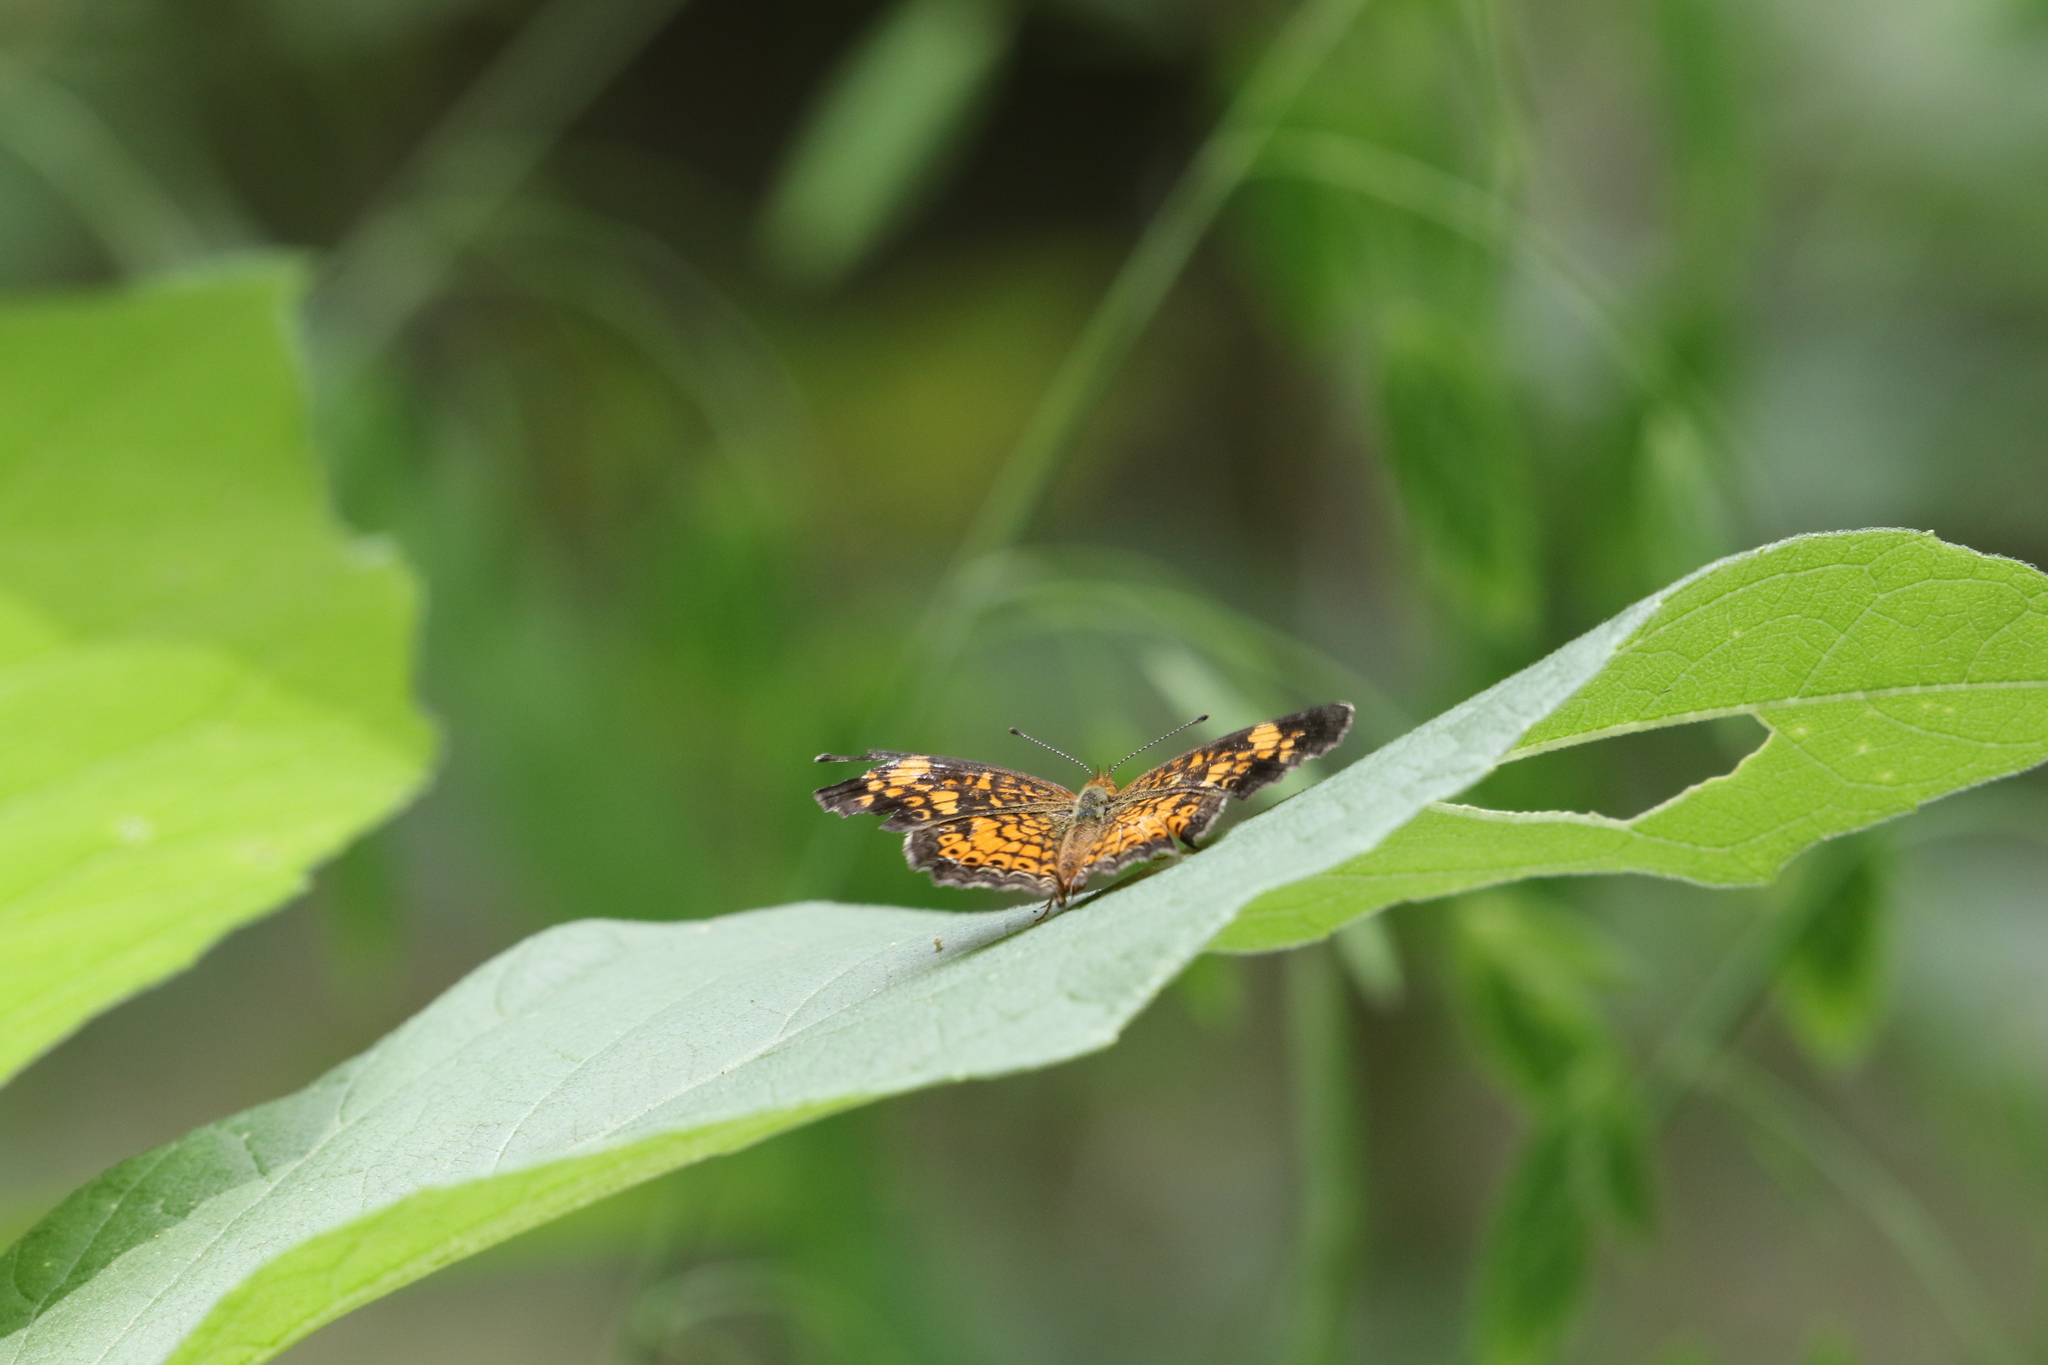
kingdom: Animalia
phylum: Arthropoda
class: Insecta
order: Lepidoptera
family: Nymphalidae
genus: Phyciodes
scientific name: Phyciodes tharos
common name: Pearl crescent
